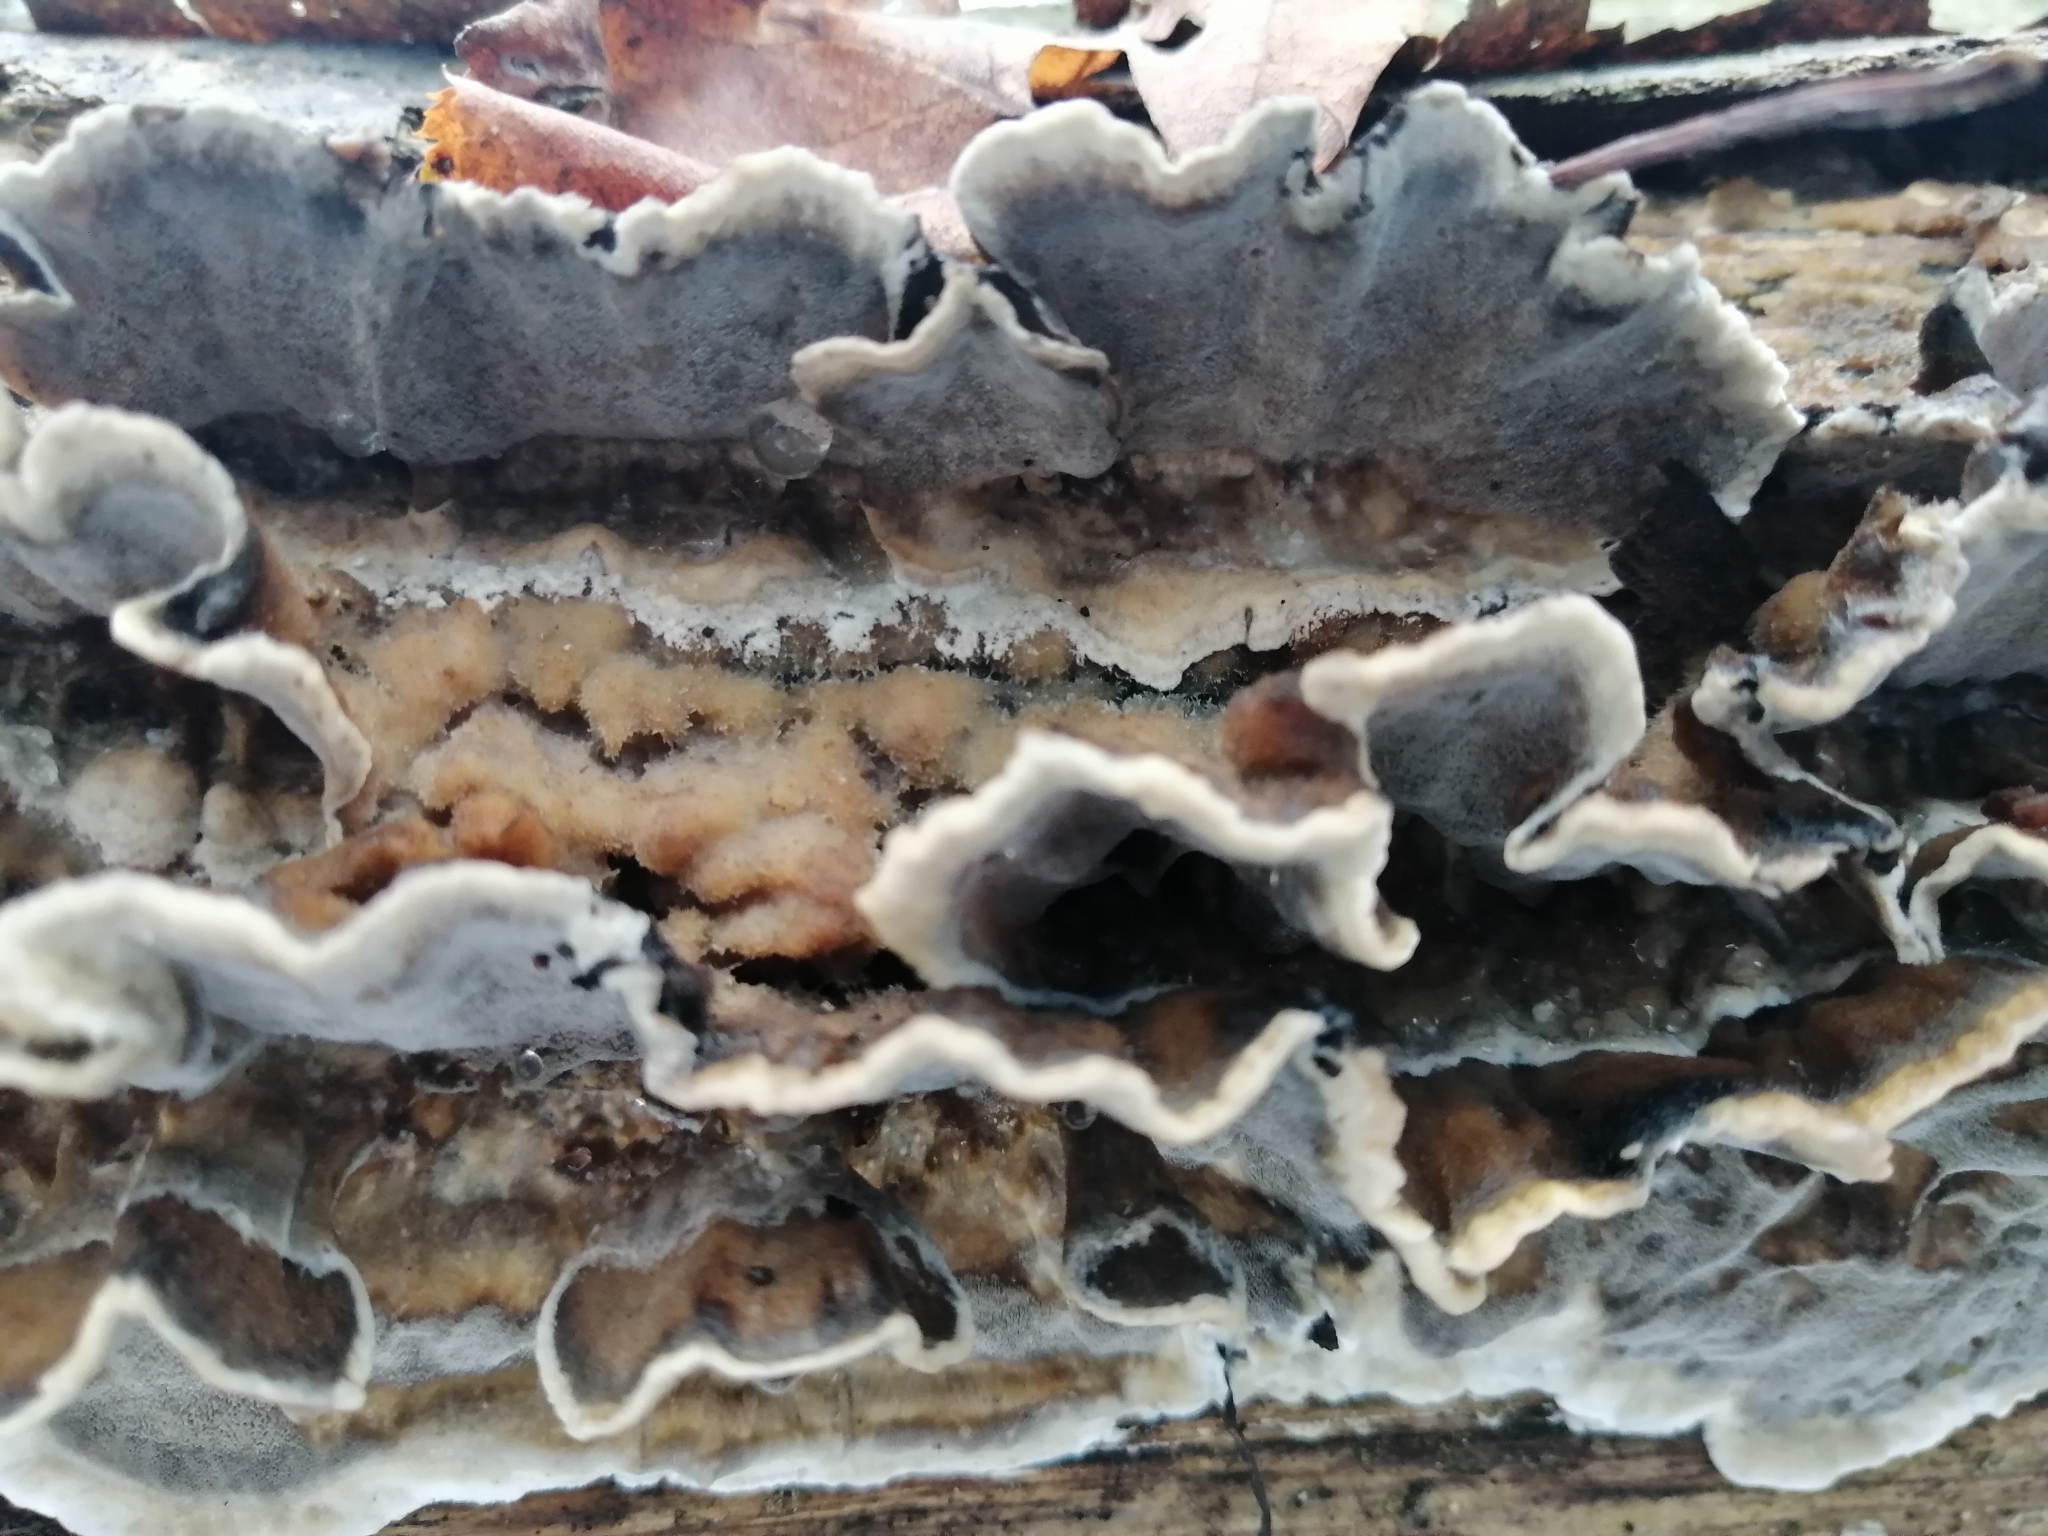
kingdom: Fungi
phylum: Basidiomycota
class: Agaricomycetes
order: Polyporales
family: Phanerochaetaceae
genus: Bjerkandera
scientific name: Bjerkandera adusta
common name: Smoky bracket
